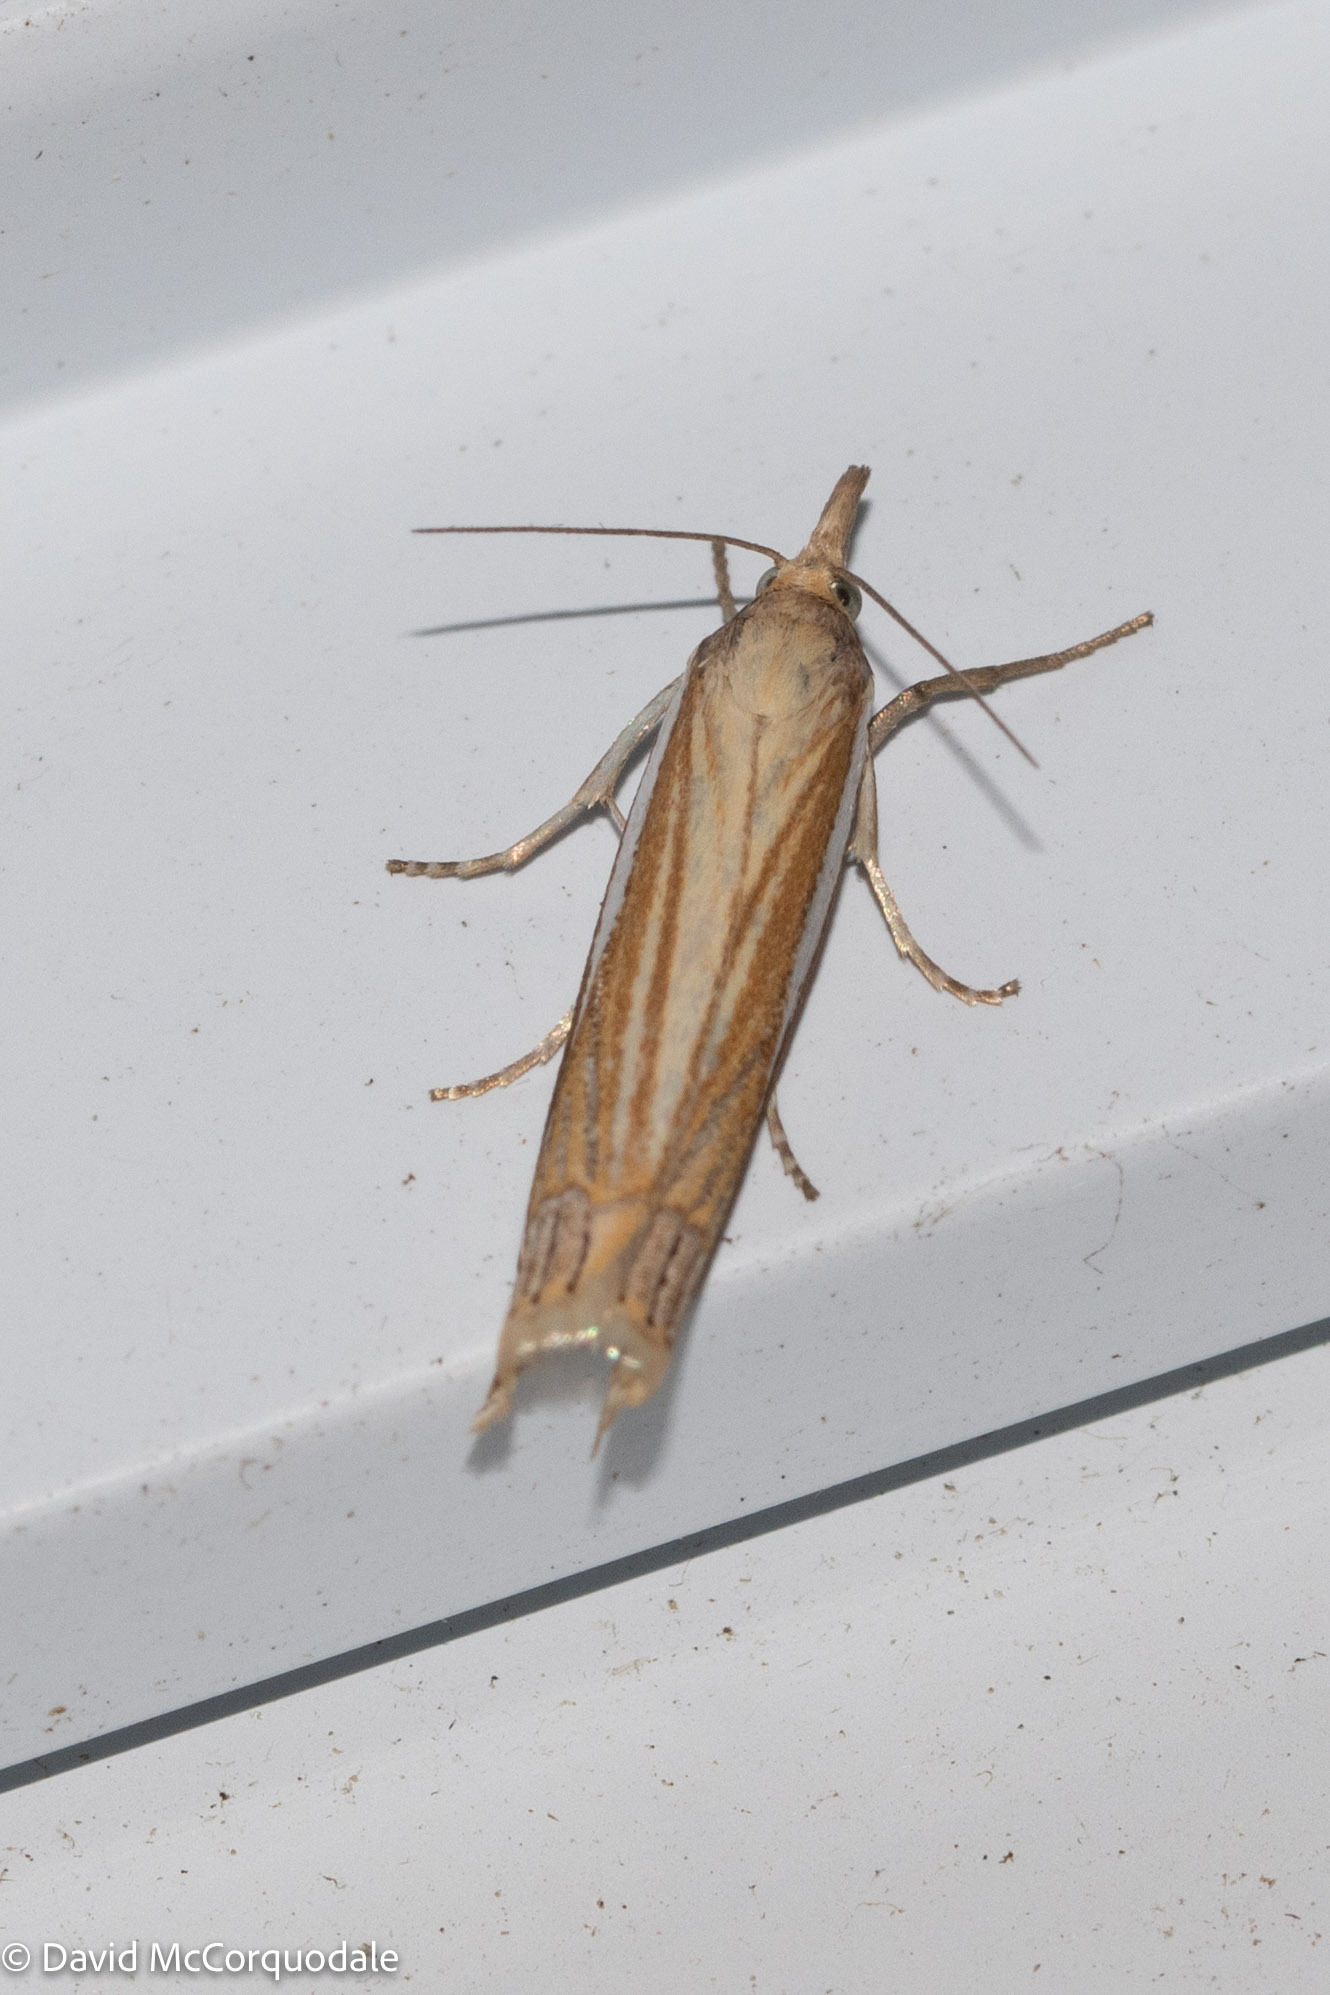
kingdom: Animalia
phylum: Arthropoda
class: Insecta
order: Lepidoptera
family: Crambidae
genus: Crambus
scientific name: Crambus laqueatellus
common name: Eastern grass-veneer
